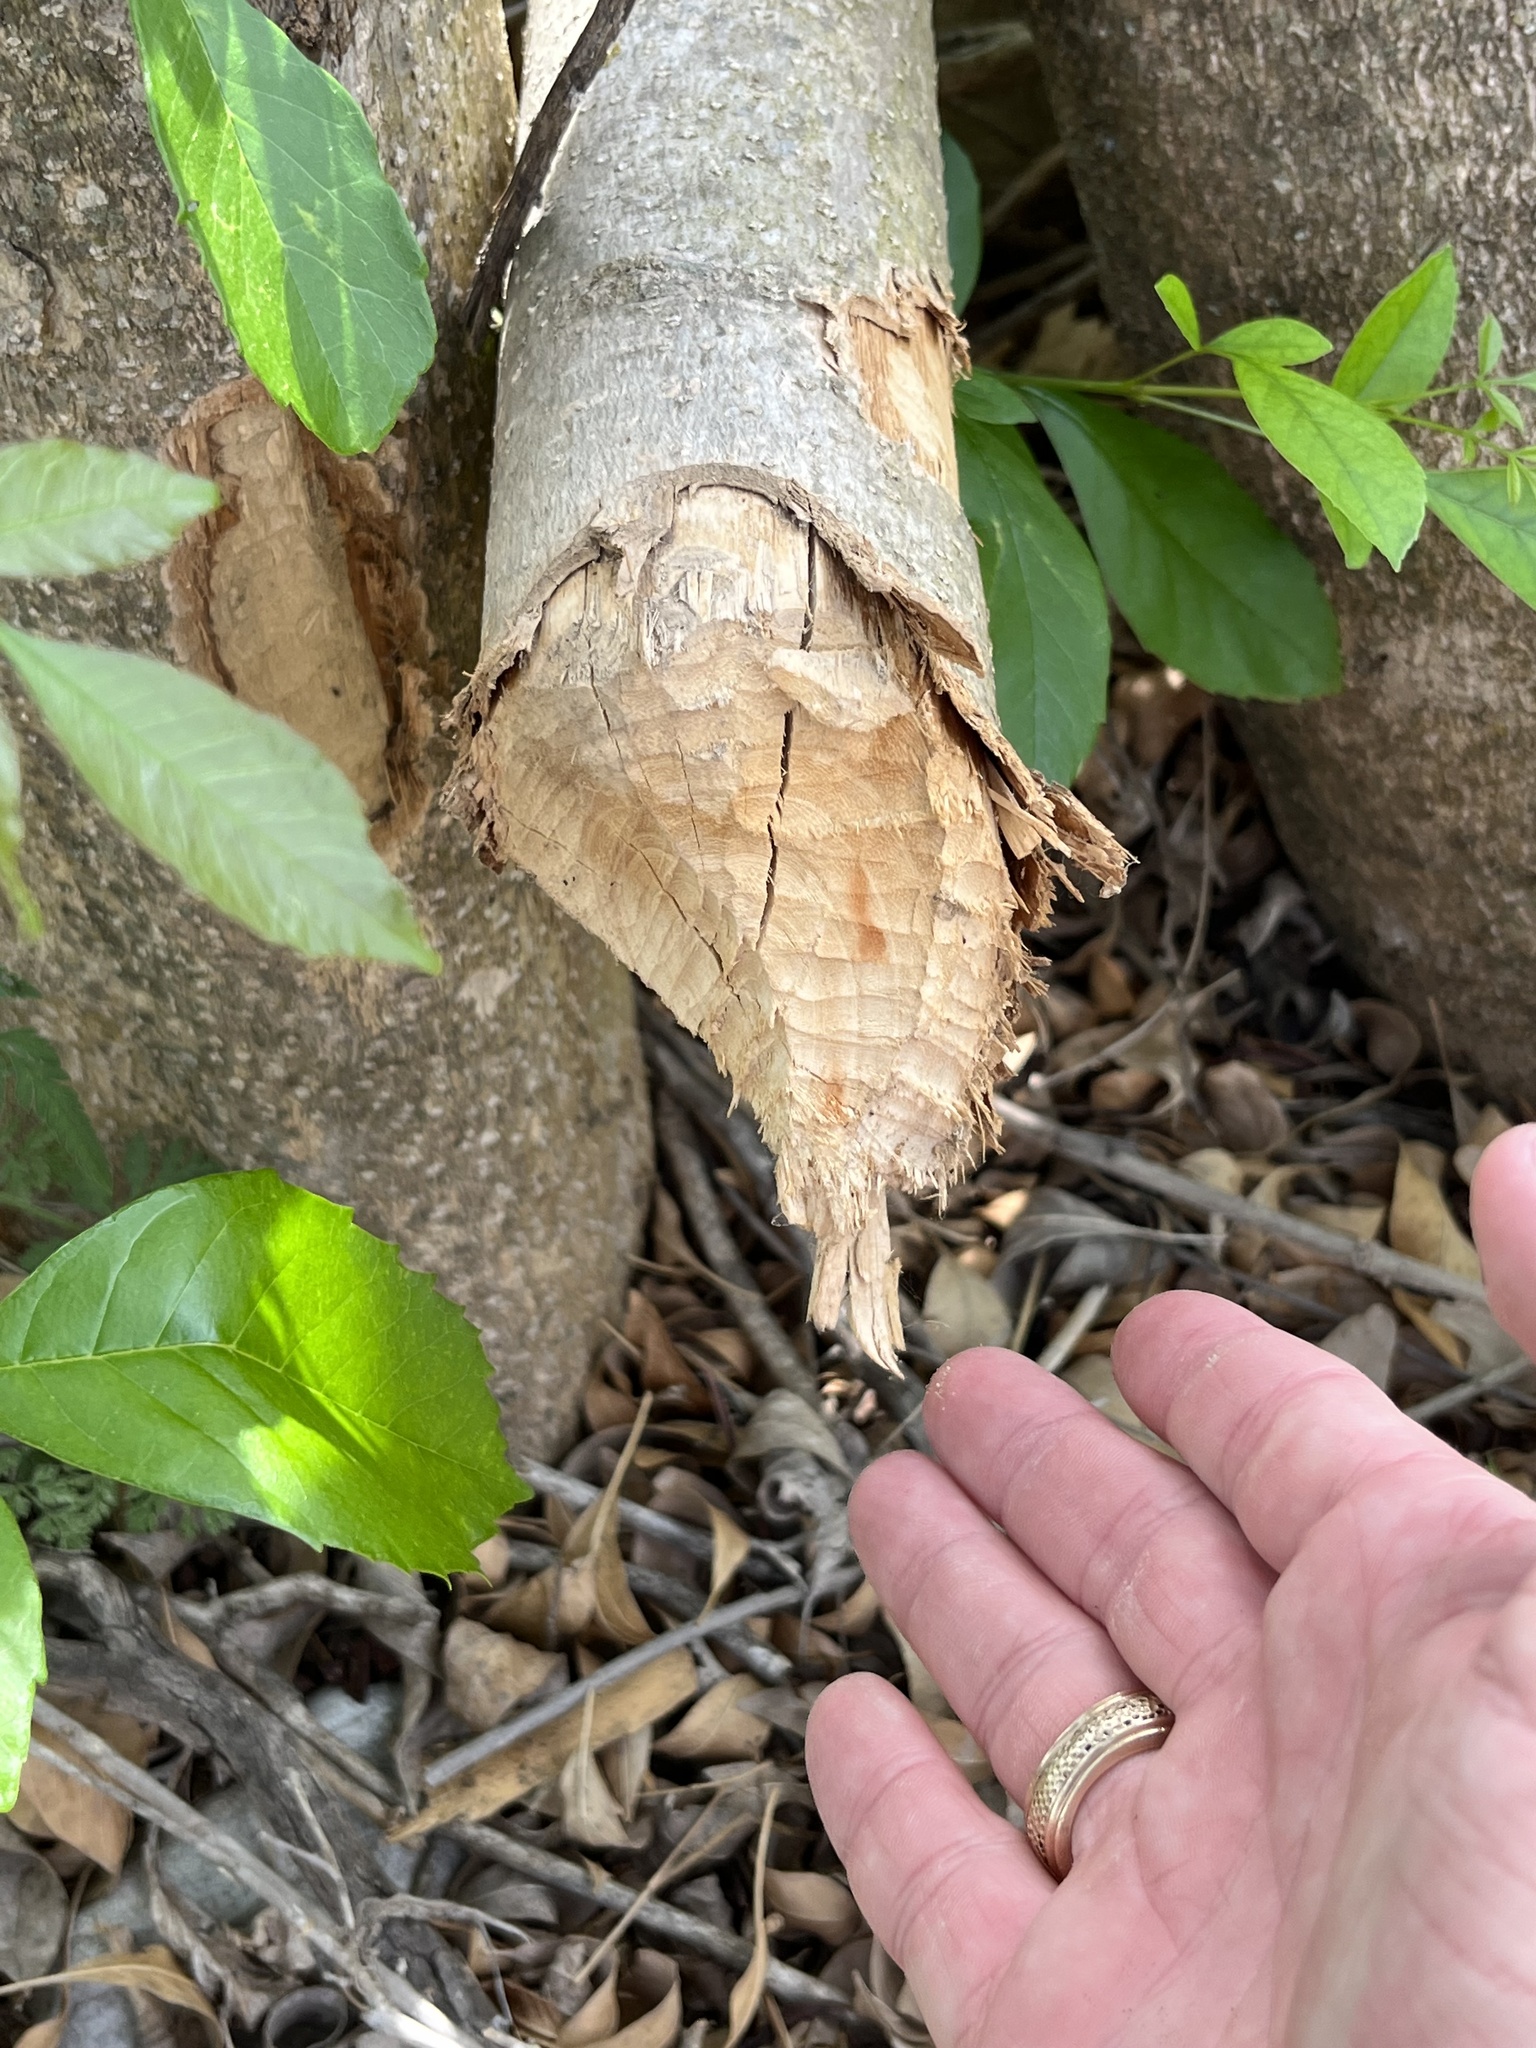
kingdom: Animalia
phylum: Chordata
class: Mammalia
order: Rodentia
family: Castoridae
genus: Castor
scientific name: Castor canadensis
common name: American beaver
